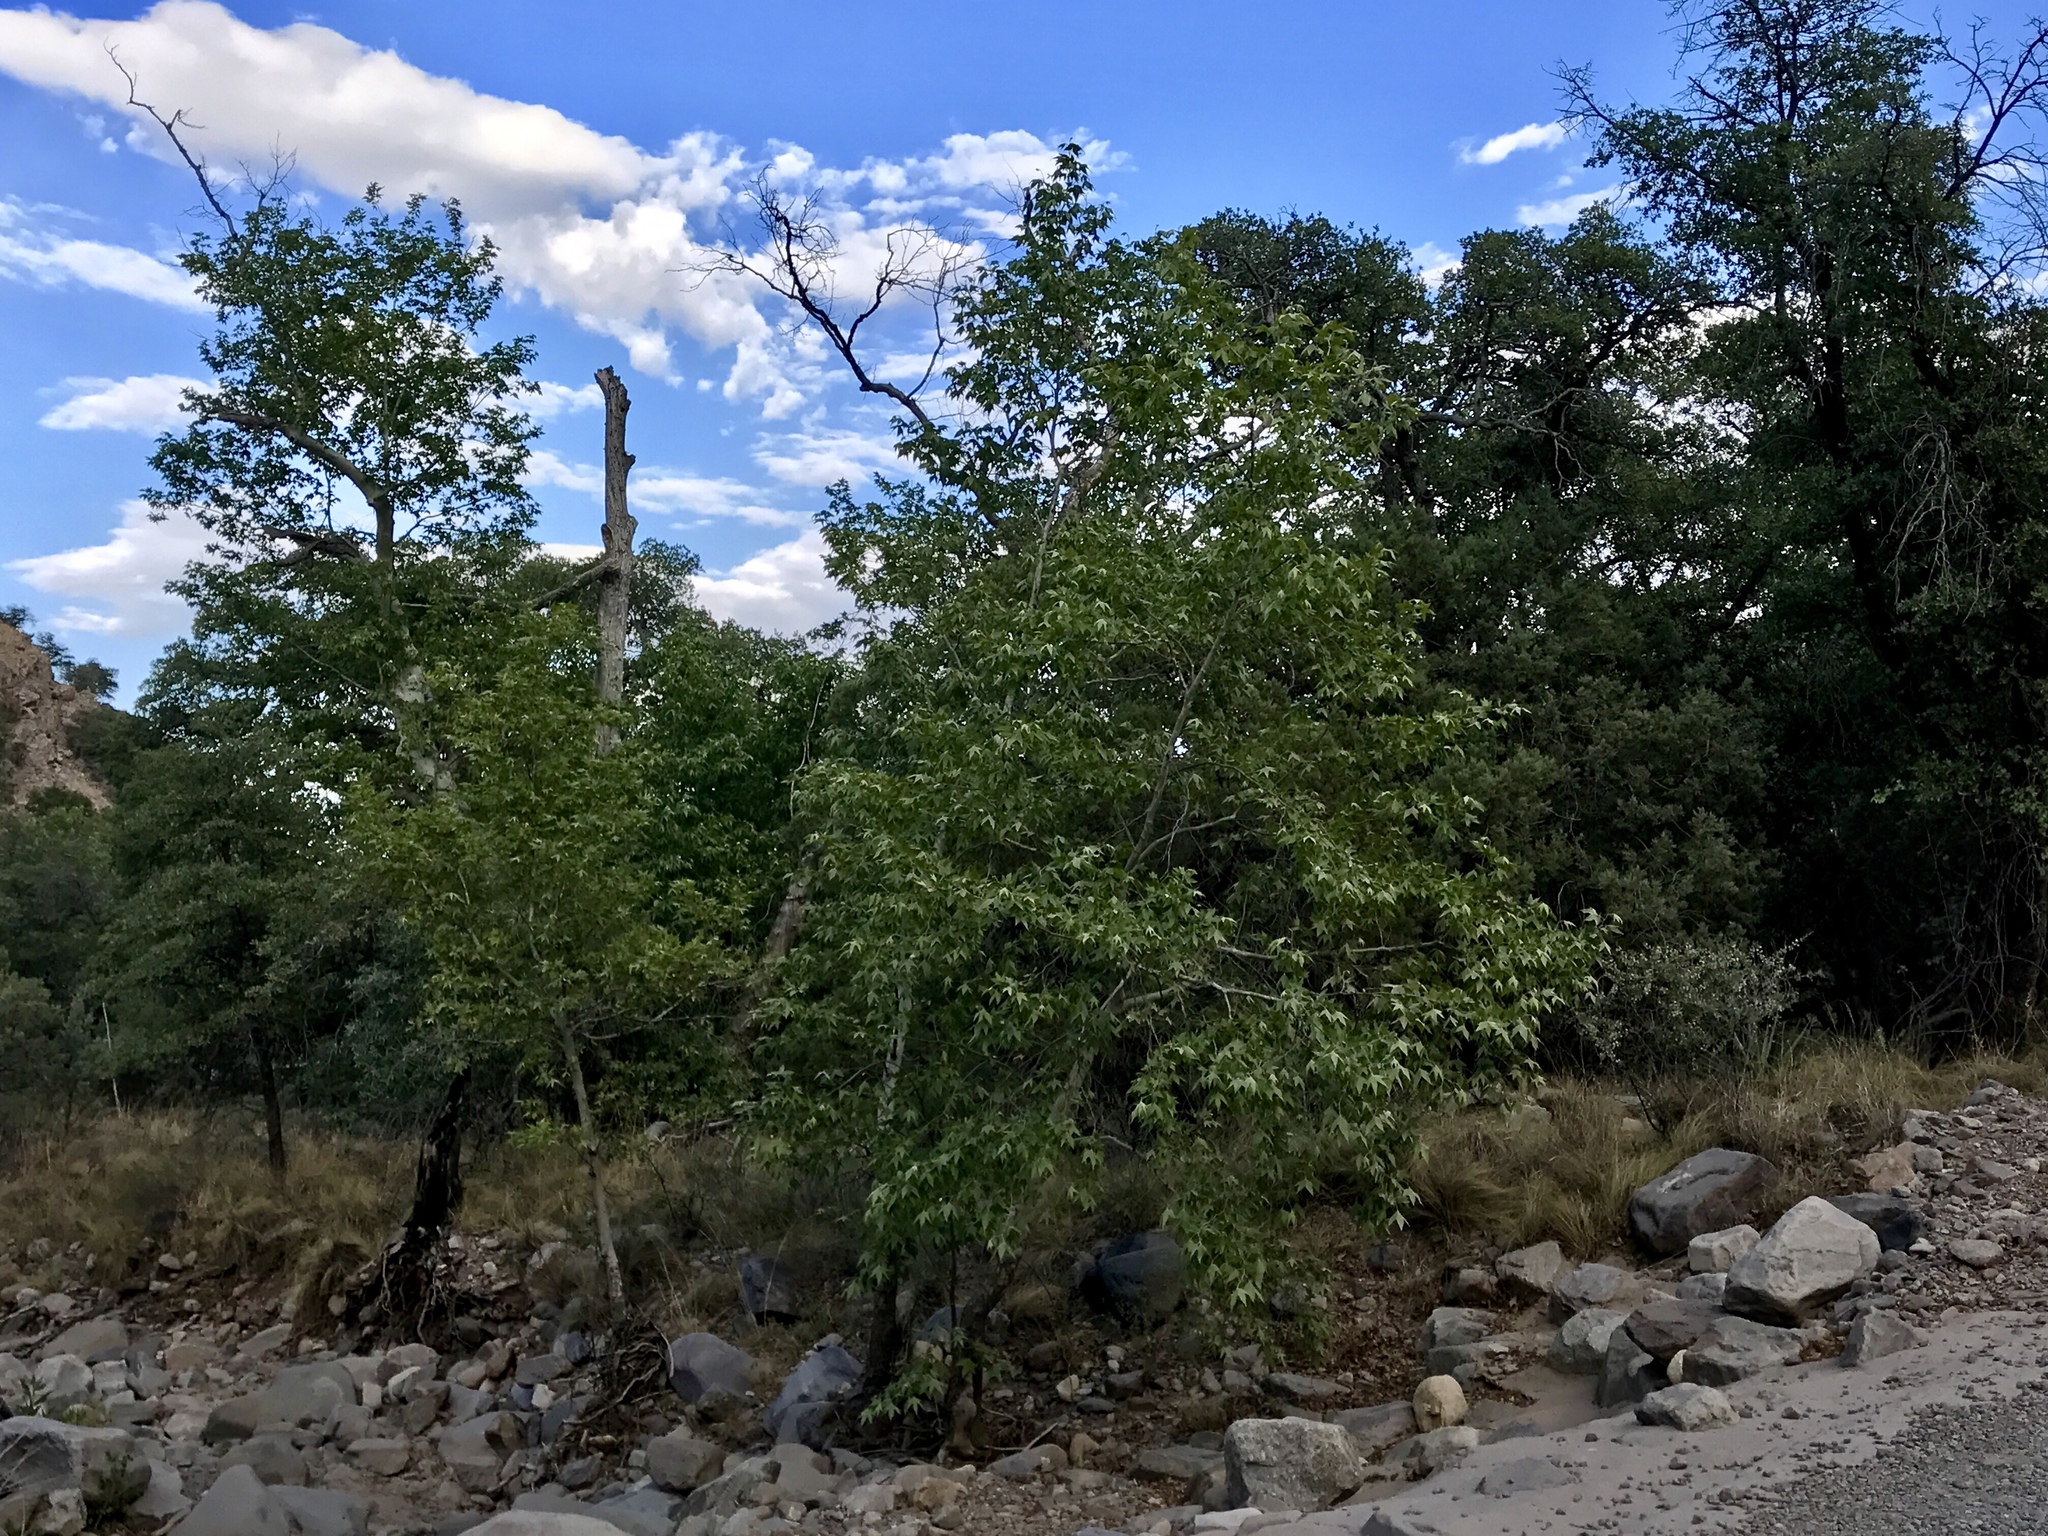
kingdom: Plantae
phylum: Tracheophyta
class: Magnoliopsida
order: Proteales
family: Platanaceae
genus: Platanus
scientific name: Platanus wrightii
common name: Arizona sycamore
